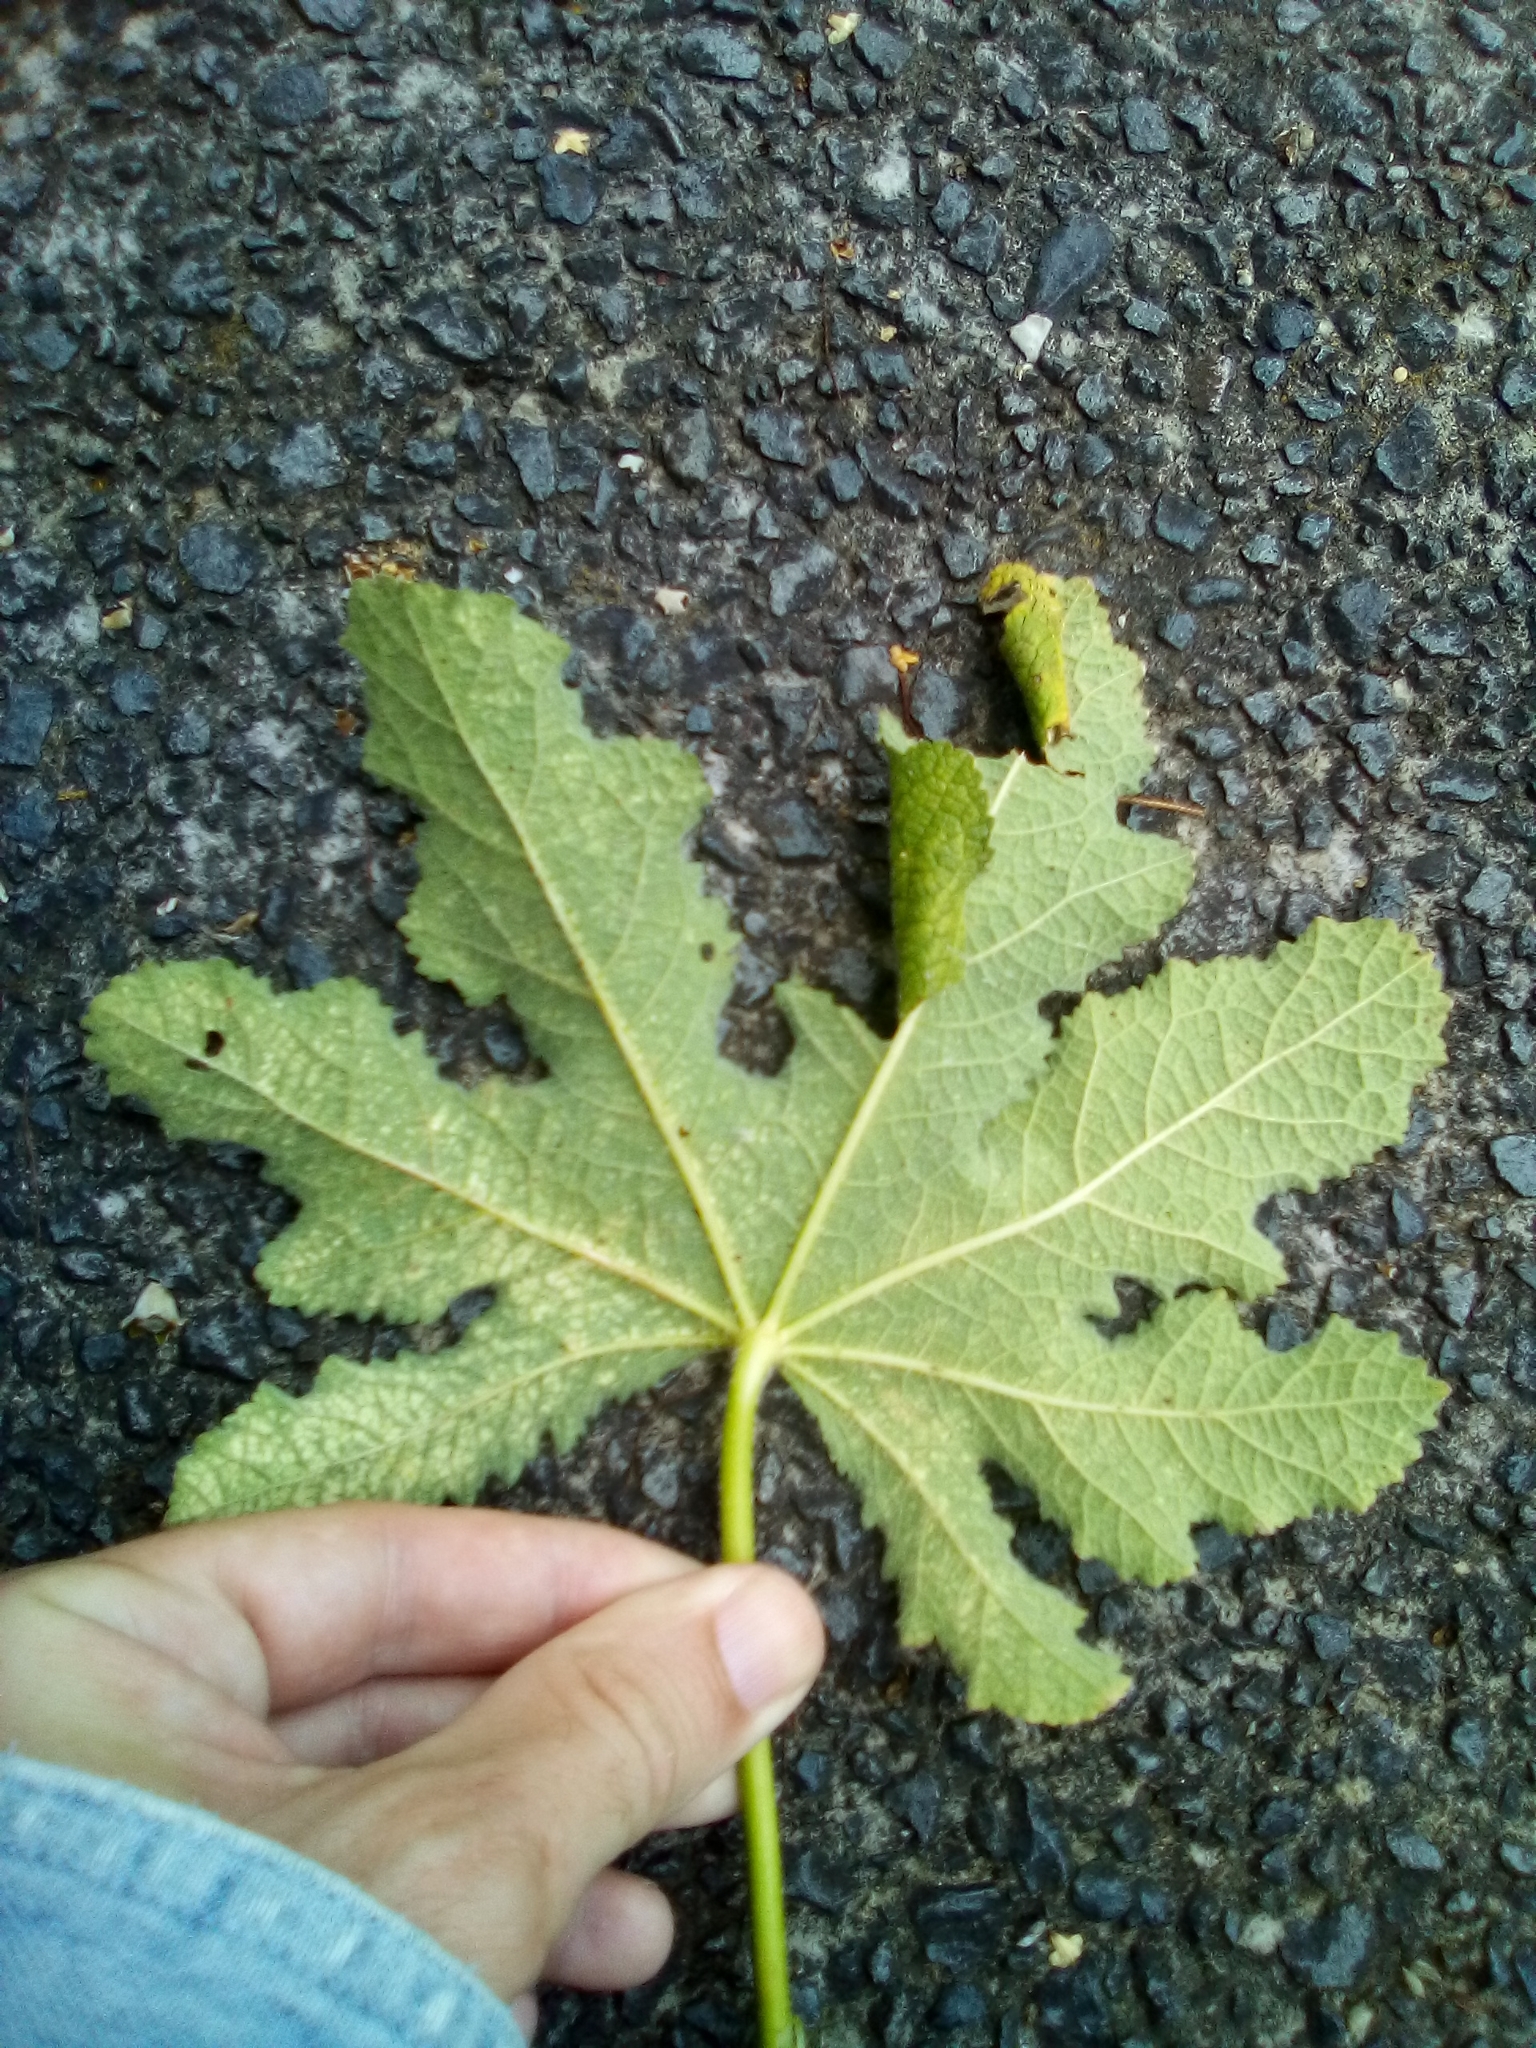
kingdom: Animalia
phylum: Arthropoda
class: Insecta
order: Lepidoptera
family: Crambidae
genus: Haritalodes
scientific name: Haritalodes derogata
